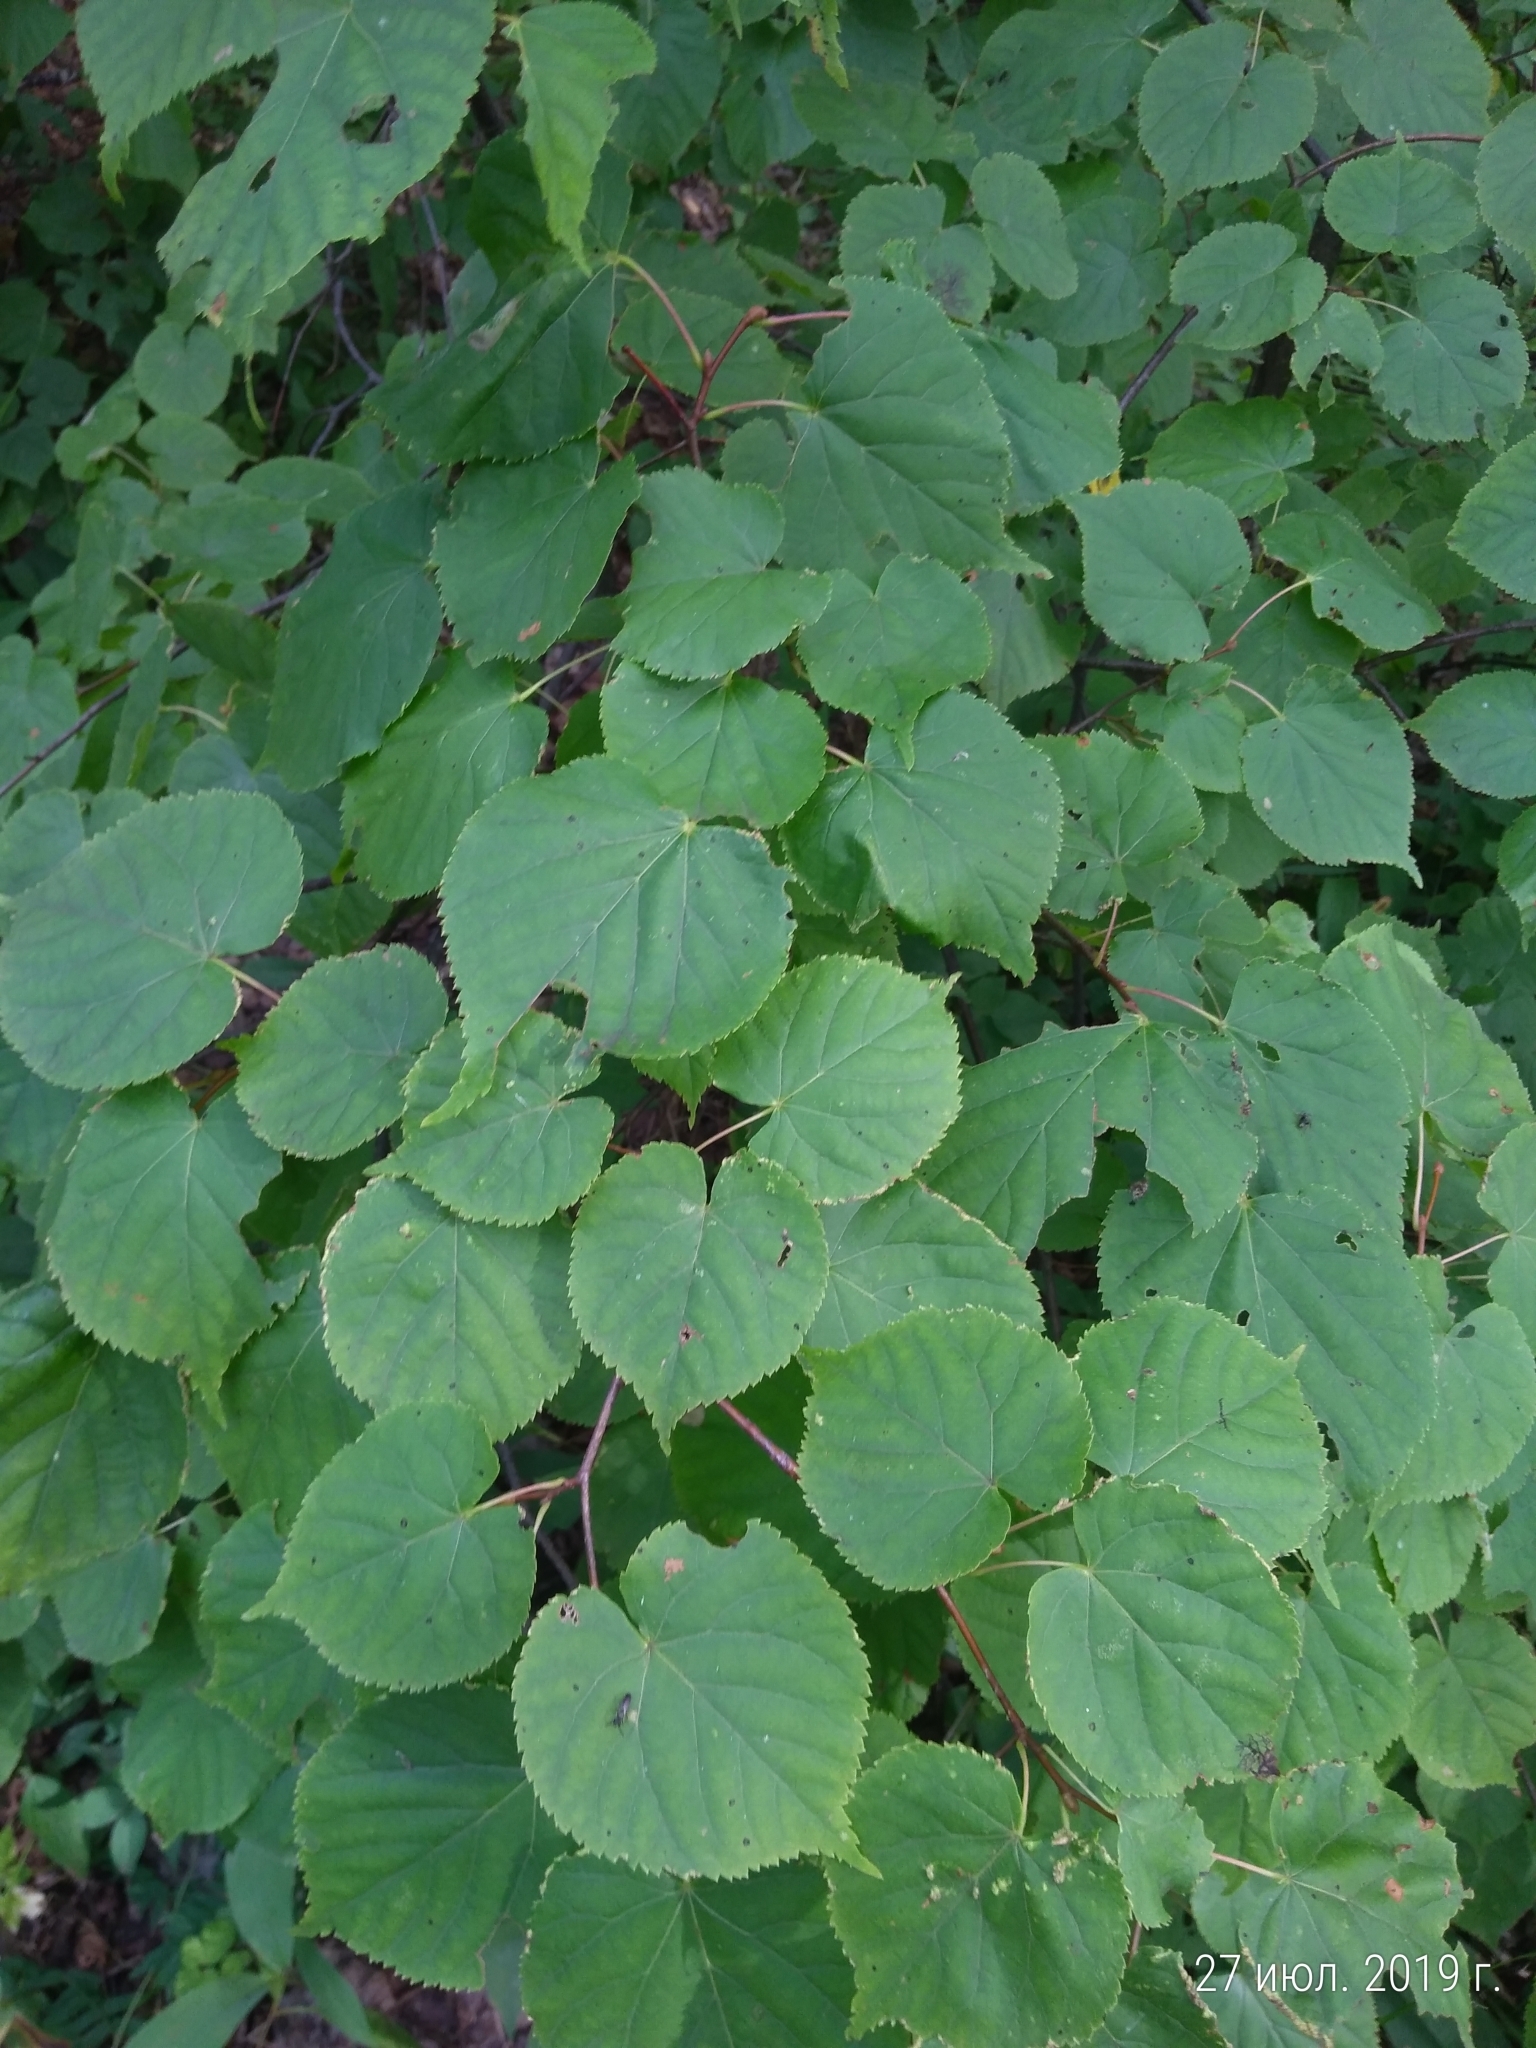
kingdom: Plantae
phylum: Tracheophyta
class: Magnoliopsida
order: Malvales
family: Malvaceae
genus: Tilia
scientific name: Tilia cordata
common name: Small-leaved lime
